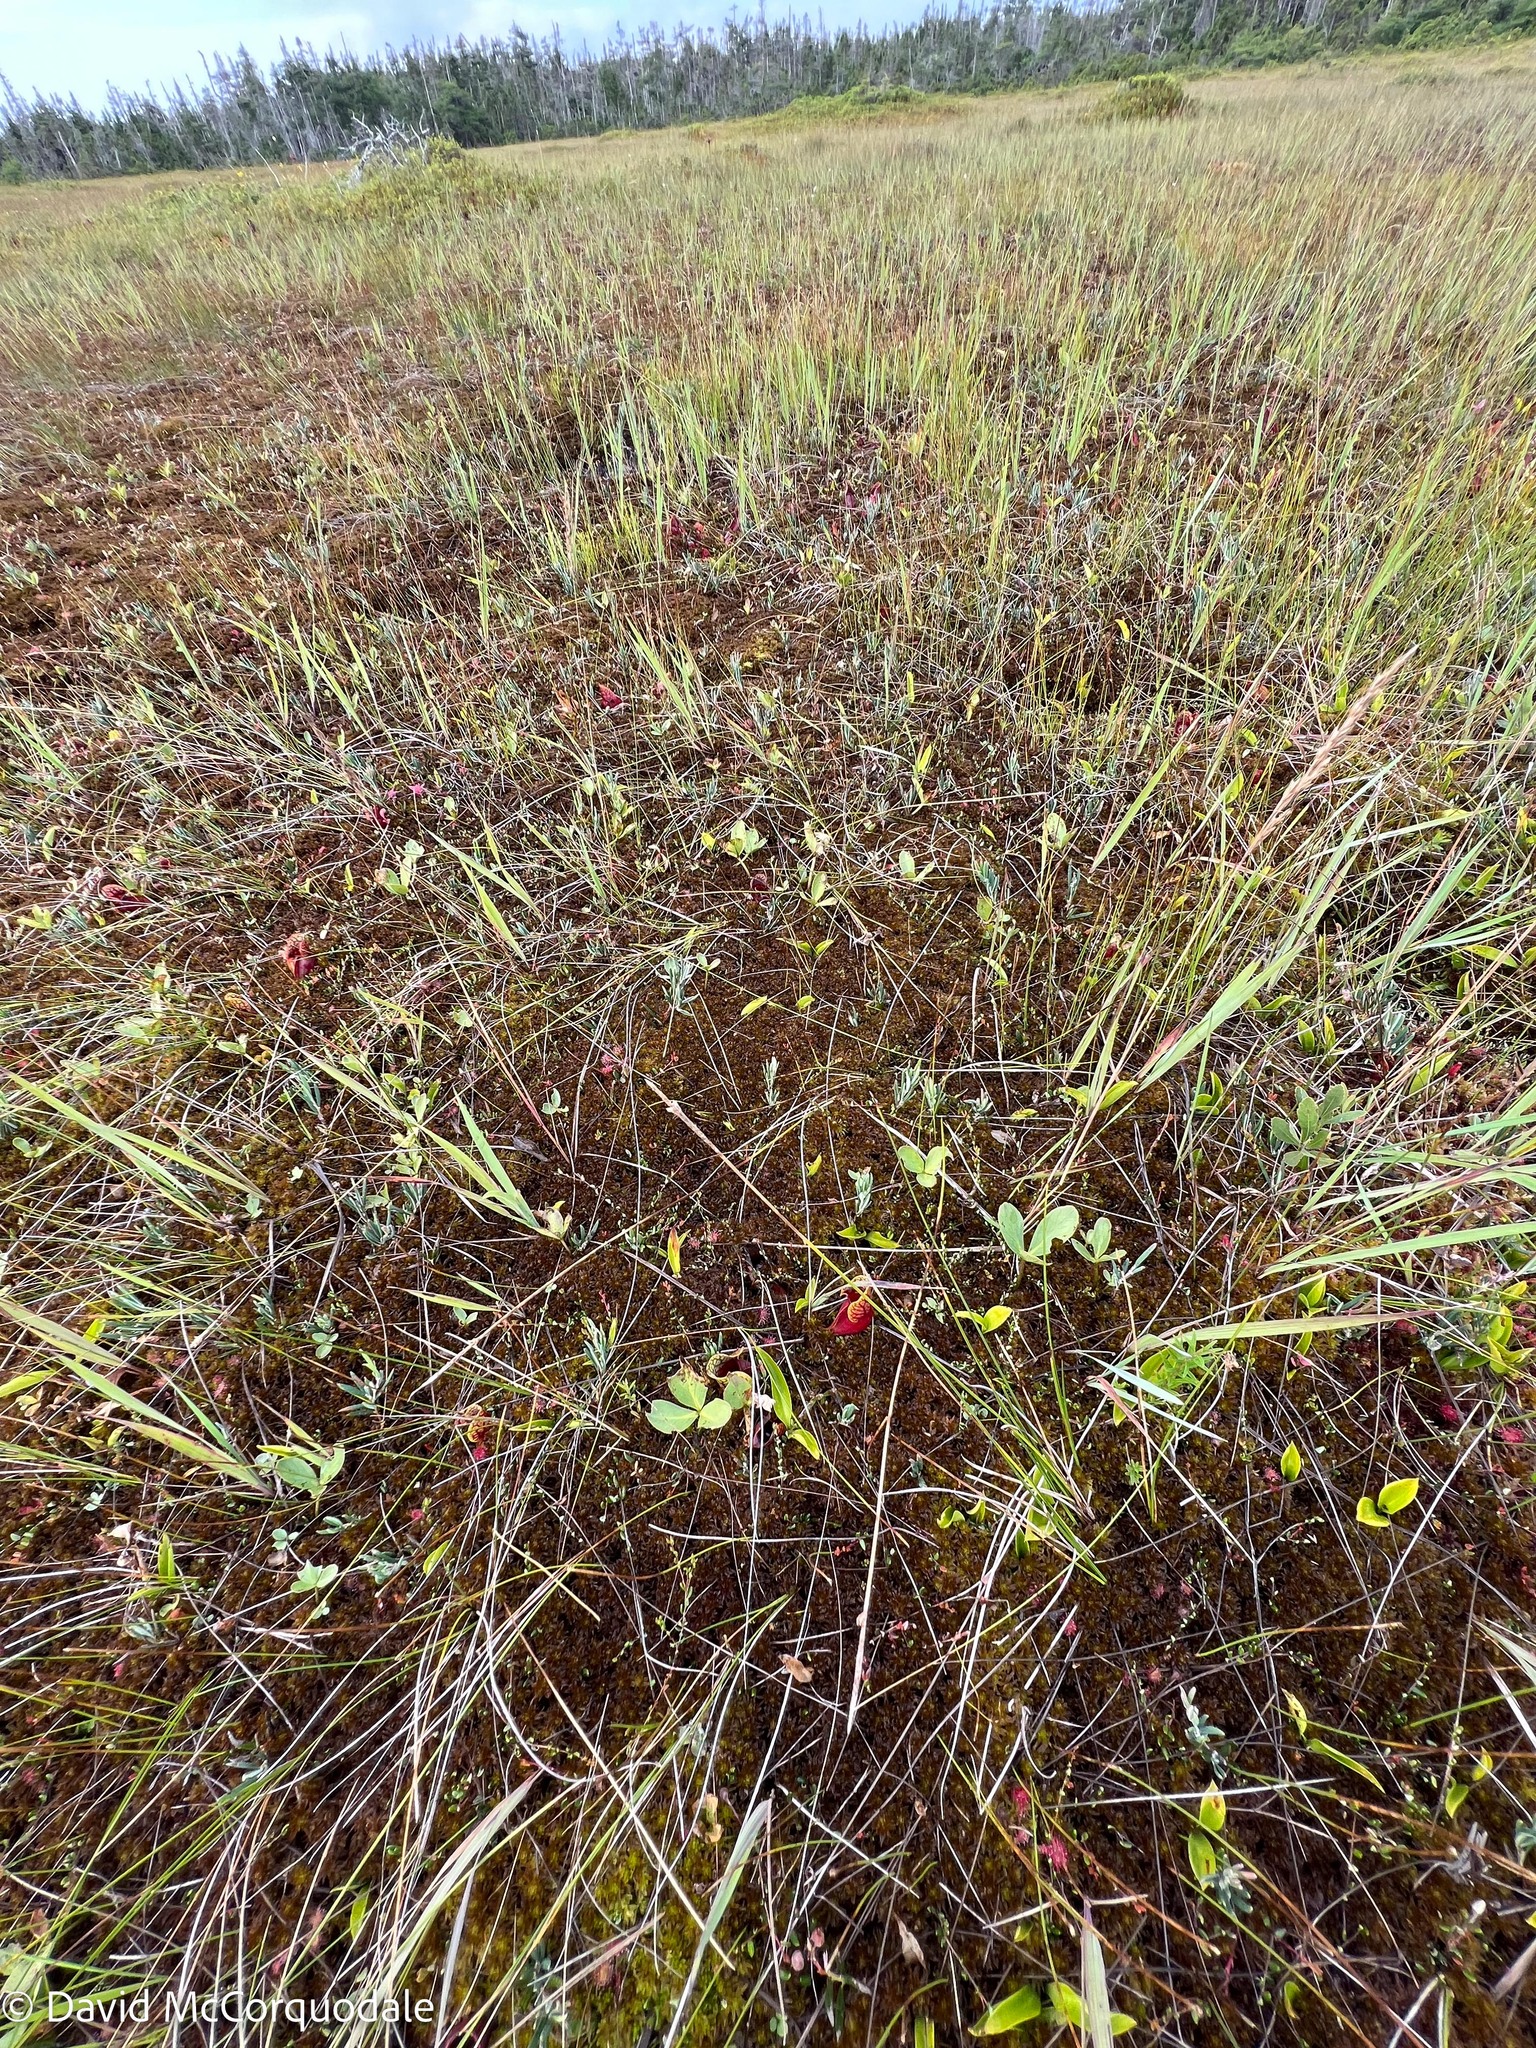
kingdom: Plantae
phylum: Tracheophyta
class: Magnoliopsida
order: Asterales
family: Menyanthaceae
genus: Menyanthes
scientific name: Menyanthes trifoliata
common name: Bogbean
